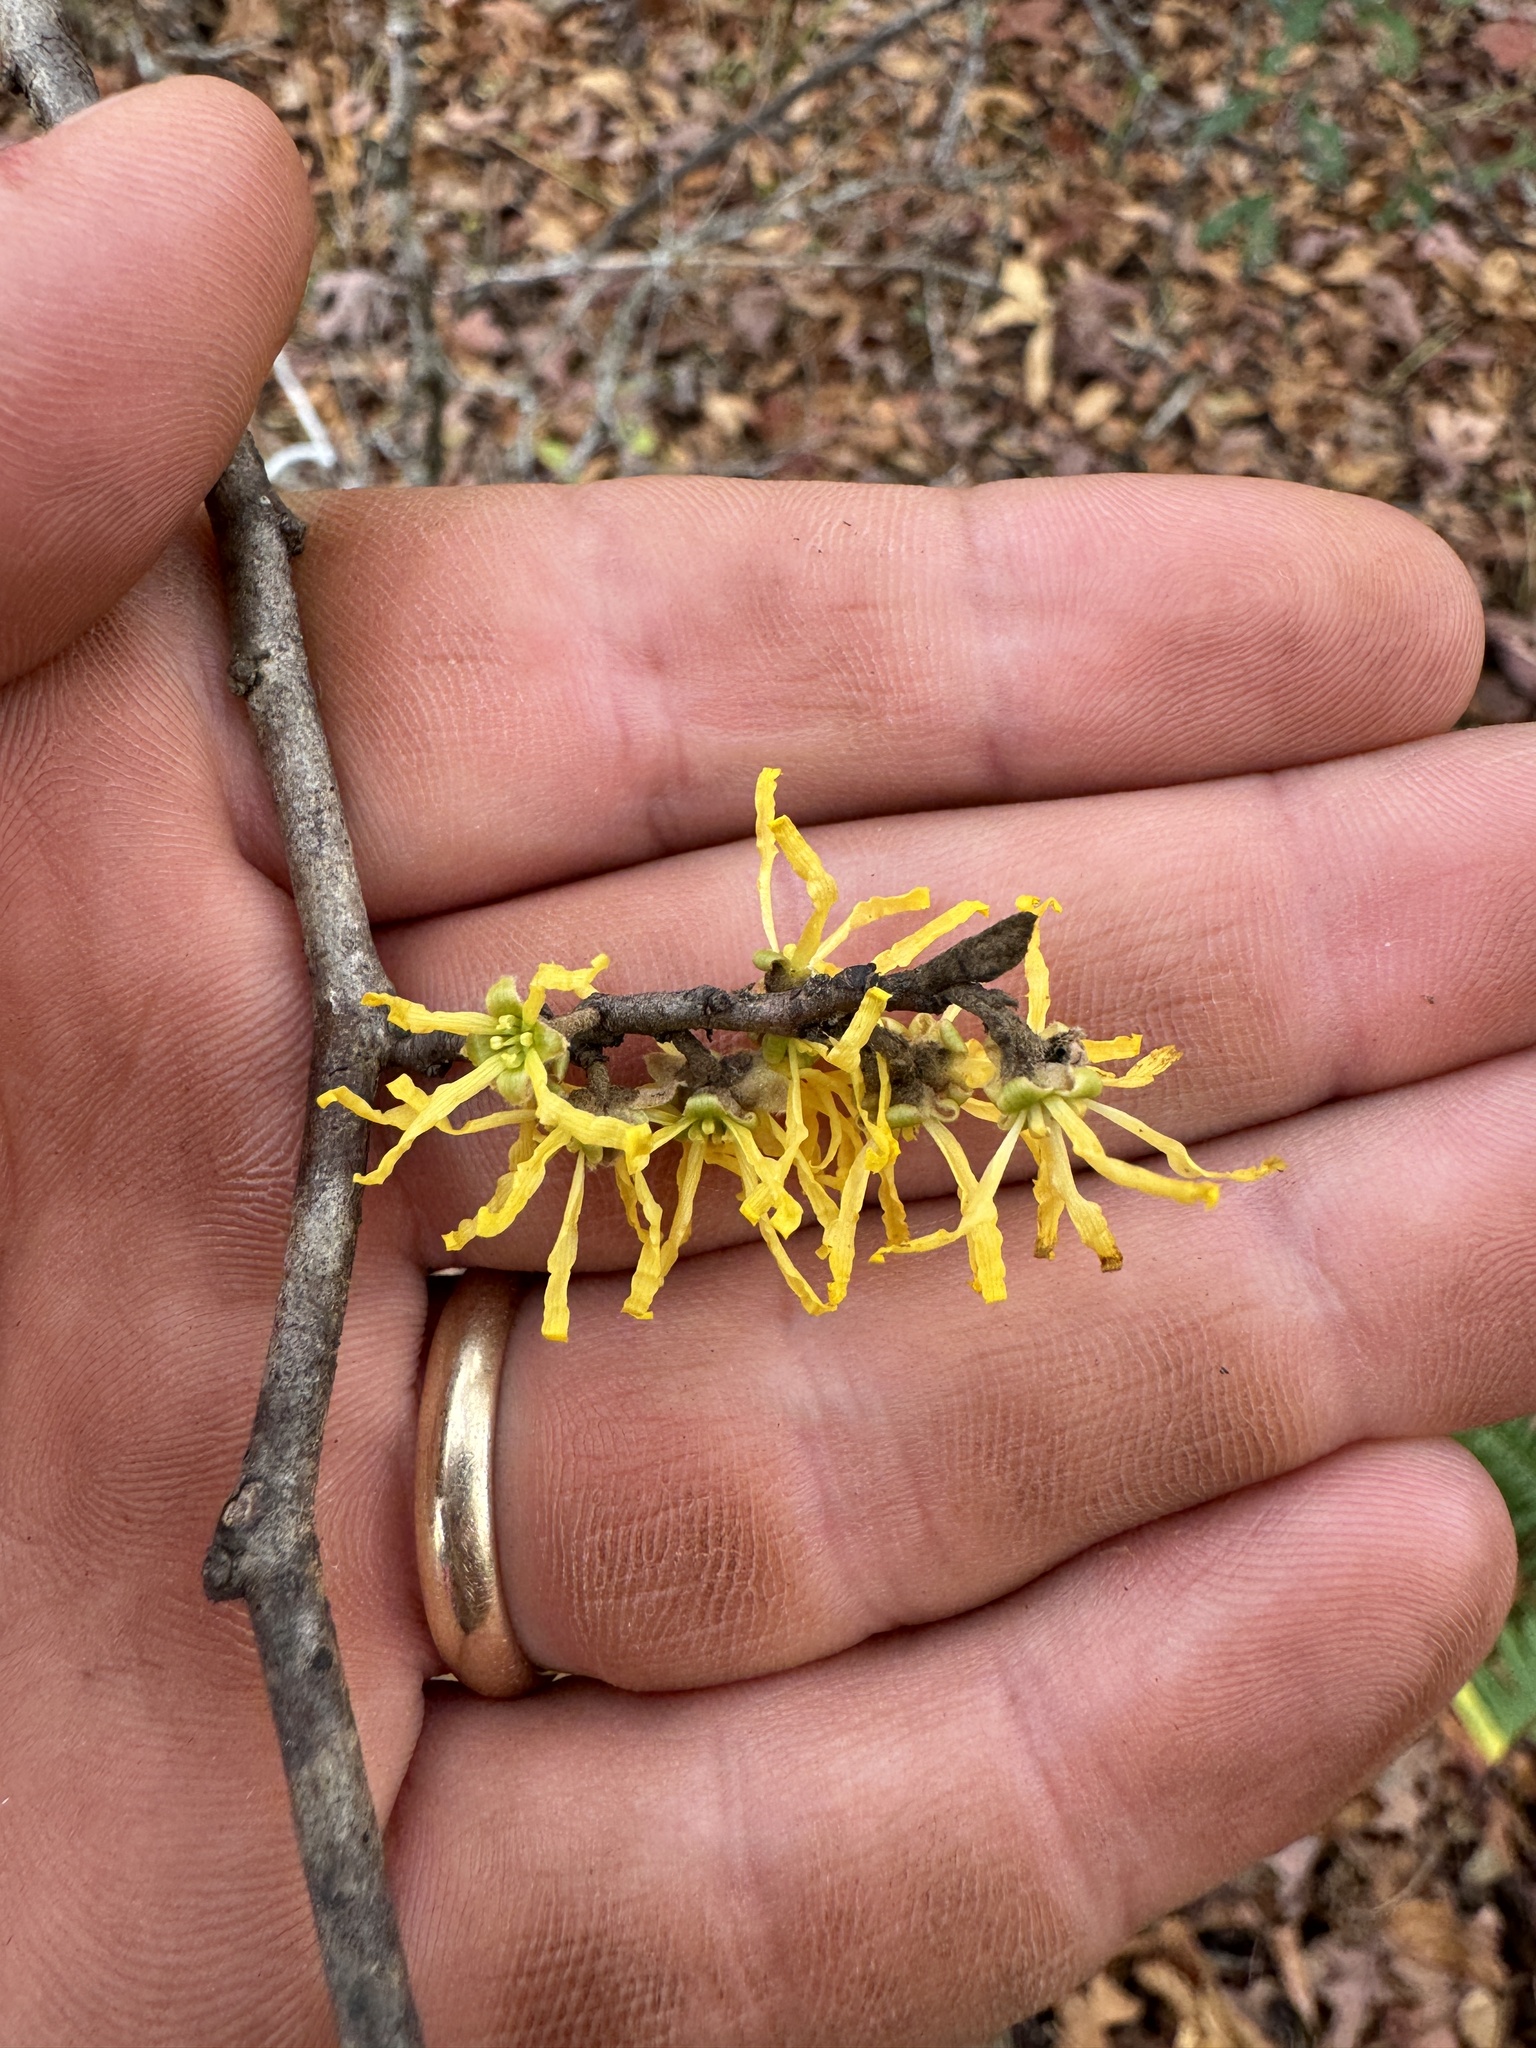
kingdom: Plantae
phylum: Tracheophyta
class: Magnoliopsida
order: Saxifragales
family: Hamamelidaceae
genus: Hamamelis
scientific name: Hamamelis virginiana
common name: Witch-hazel
